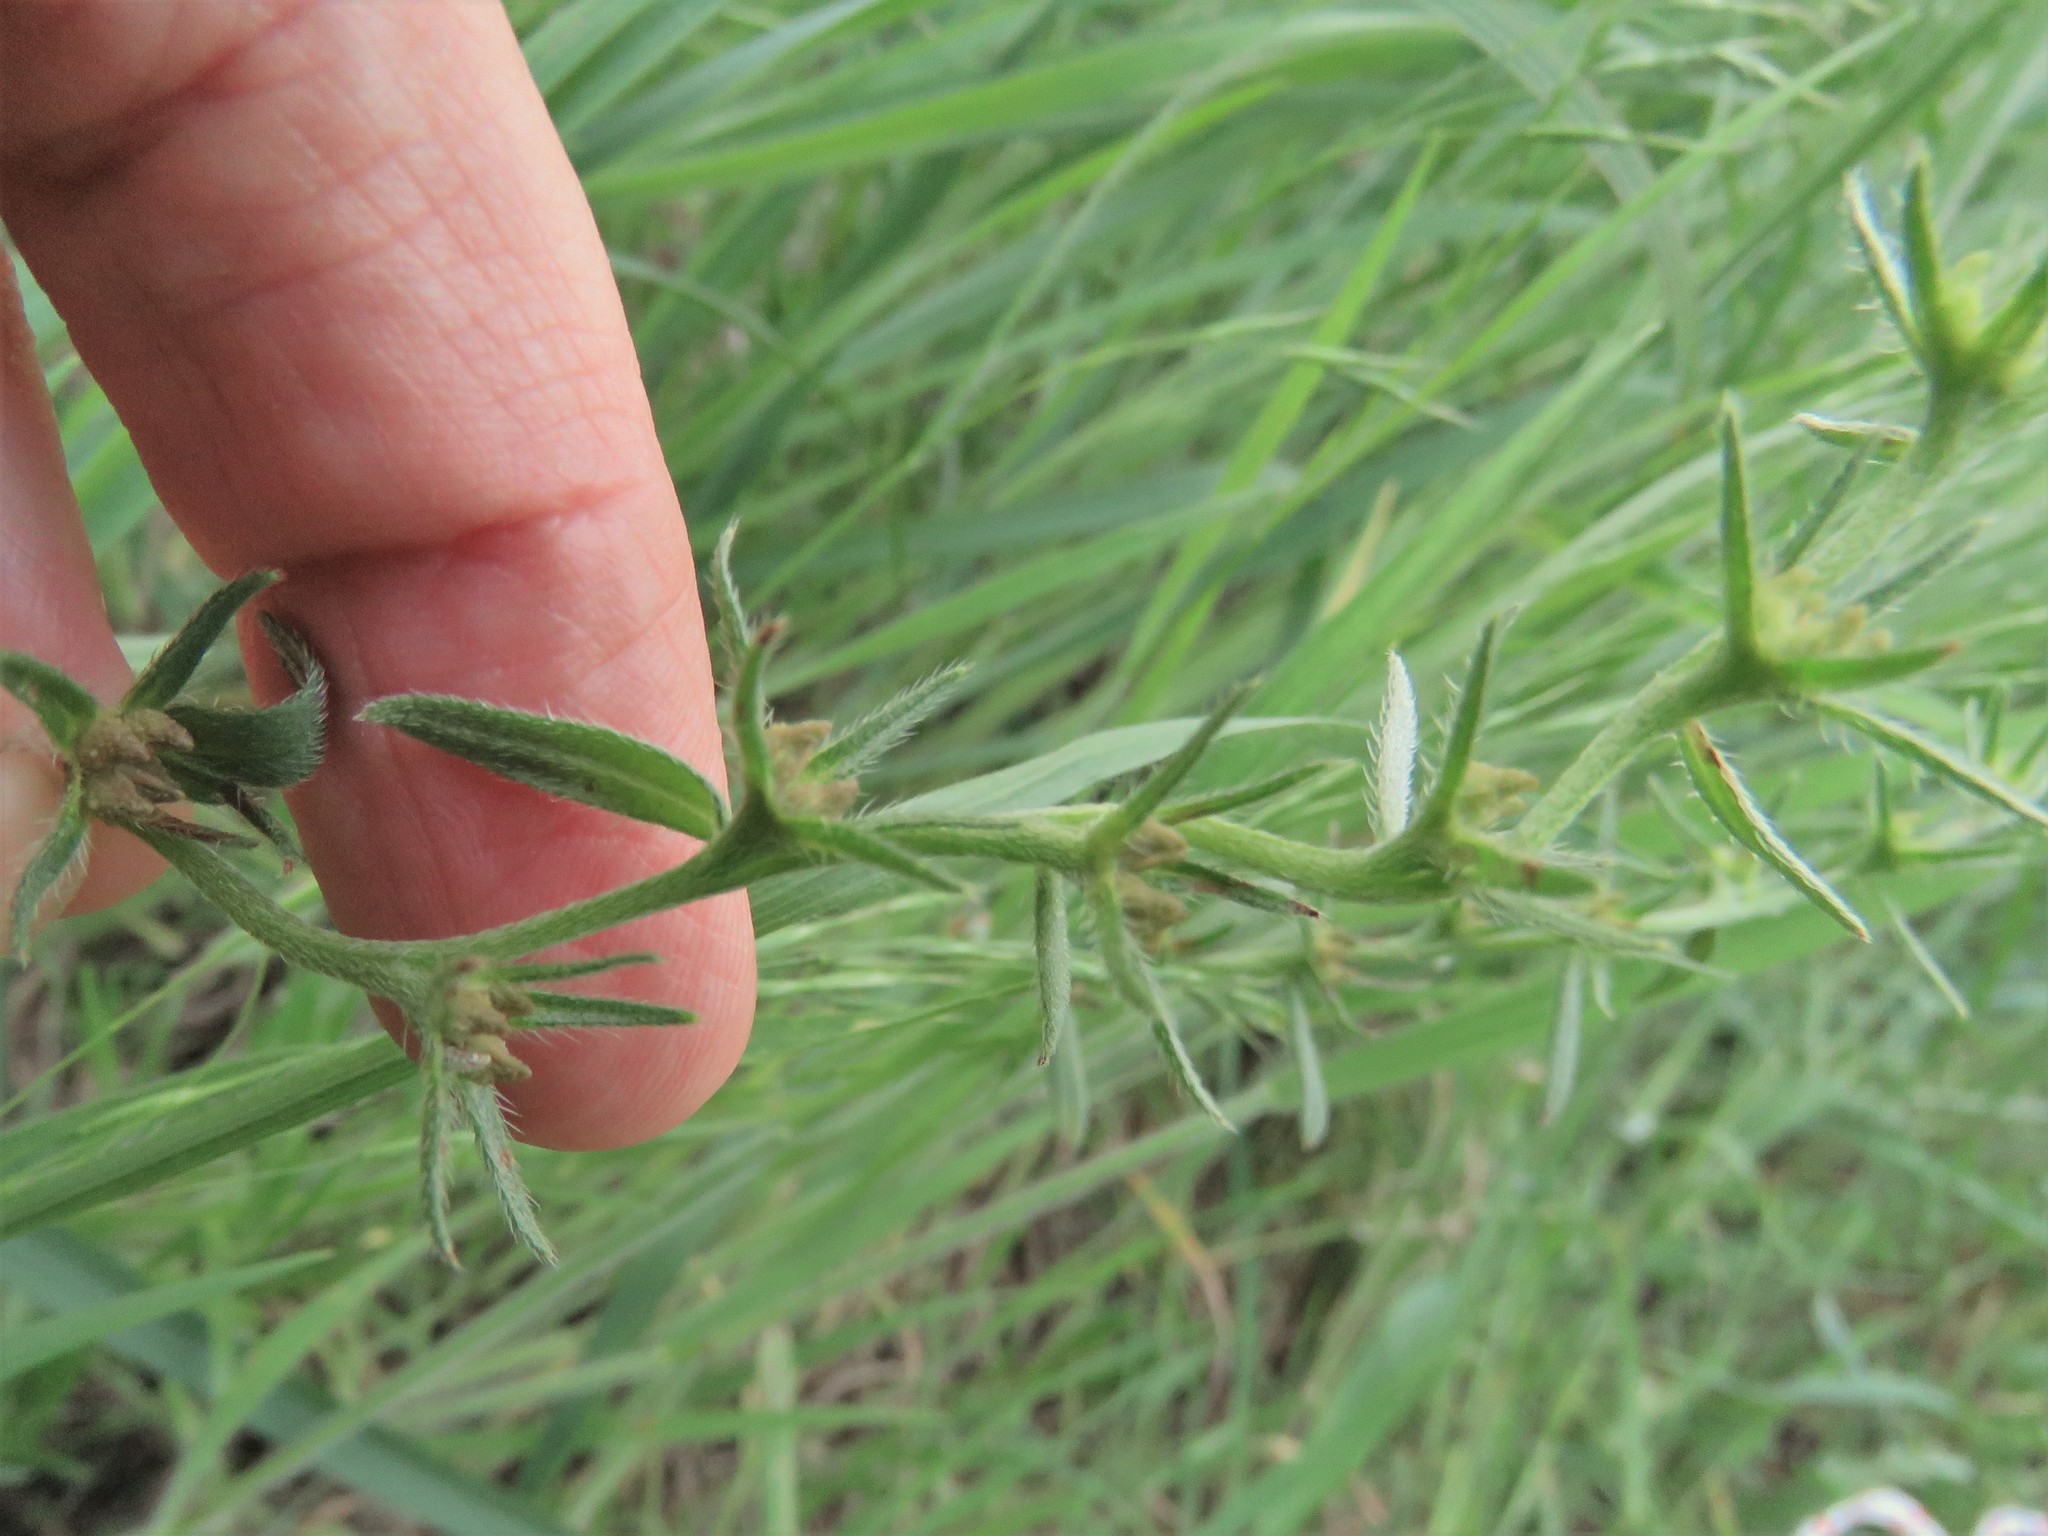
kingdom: Plantae
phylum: Tracheophyta
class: Magnoliopsida
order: Boraginales
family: Boraginaceae
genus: Buglossoides
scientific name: Buglossoides arvensis
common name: Corn gromwell
